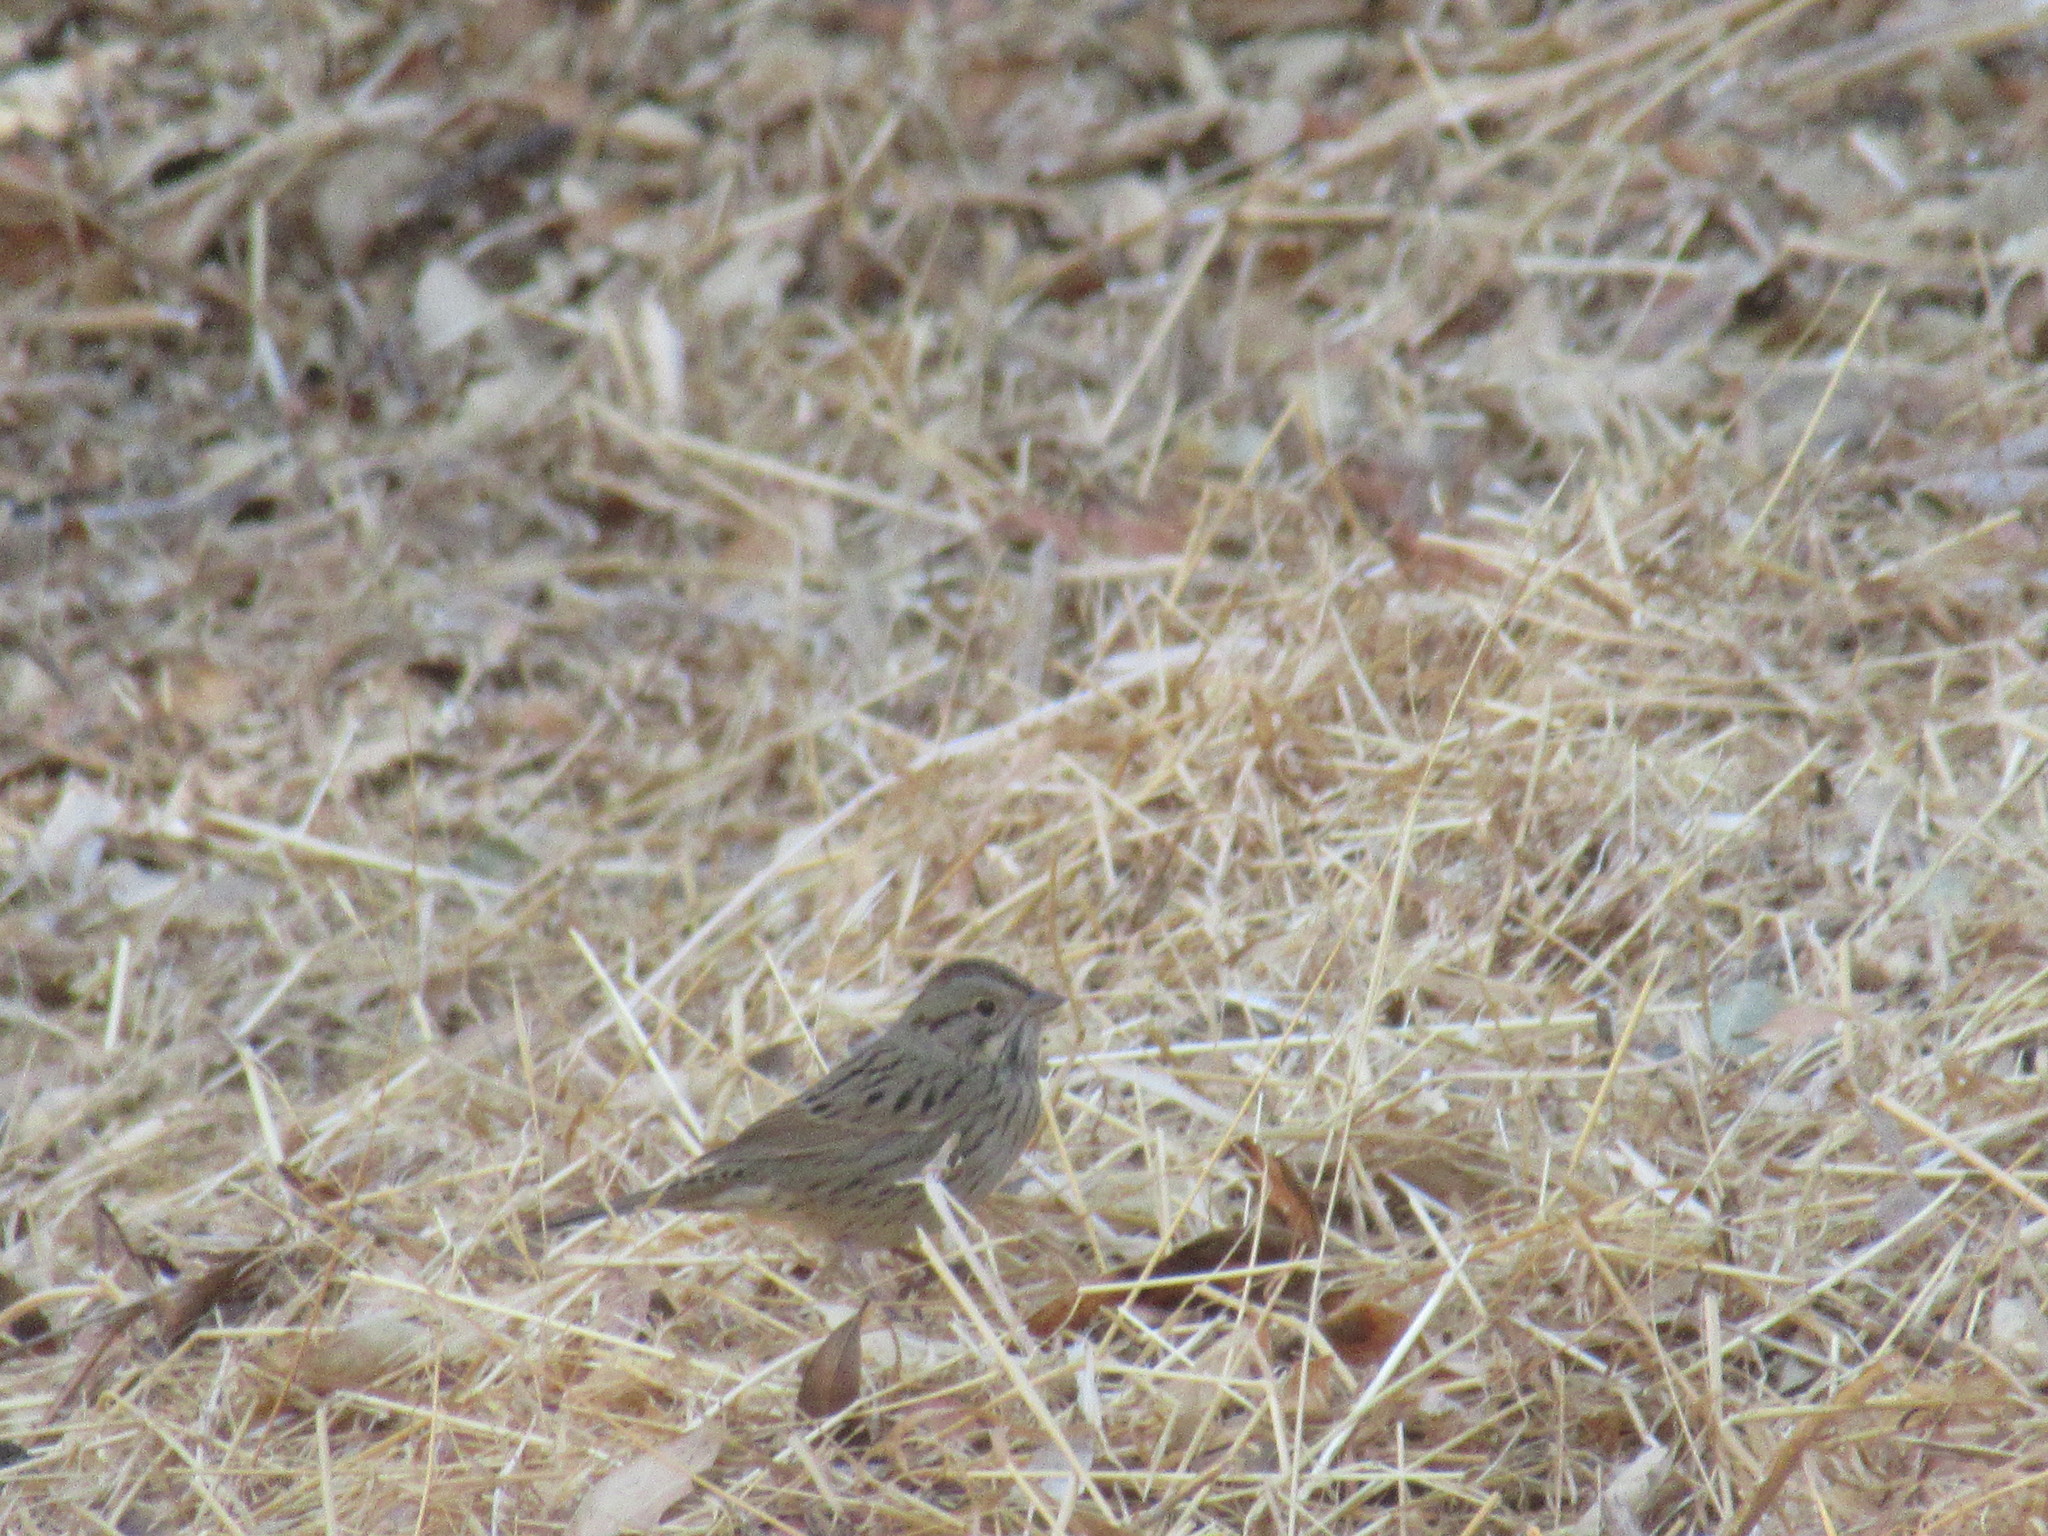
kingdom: Animalia
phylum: Chordata
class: Aves
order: Passeriformes
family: Passerellidae
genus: Melospiza
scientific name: Melospiza lincolnii
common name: Lincoln's sparrow
